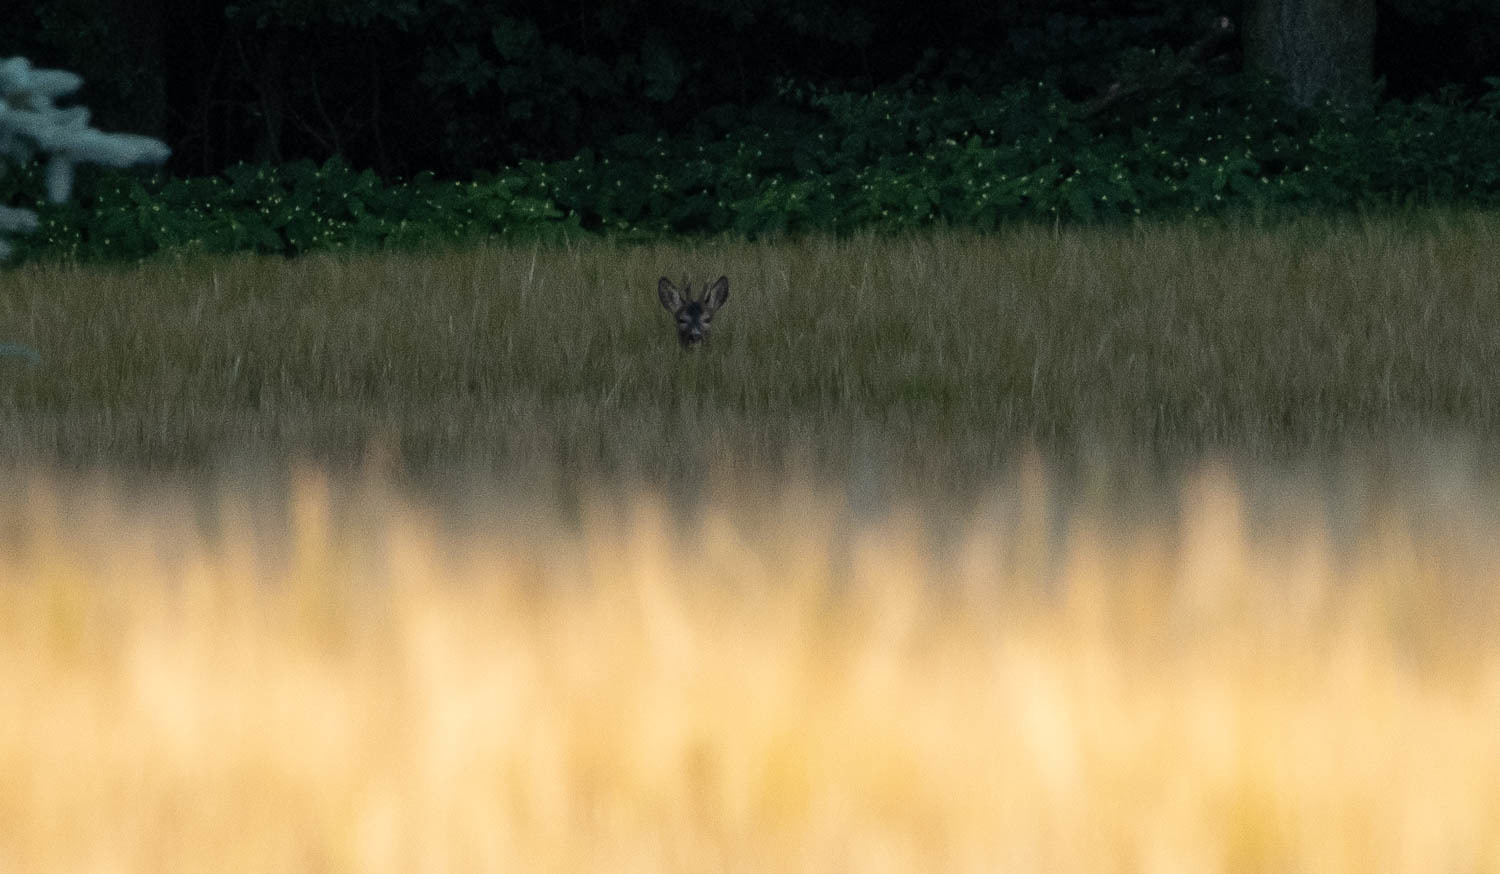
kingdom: Animalia
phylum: Chordata
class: Mammalia
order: Artiodactyla
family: Cervidae
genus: Capreolus
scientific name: Capreolus capreolus
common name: Western roe deer
